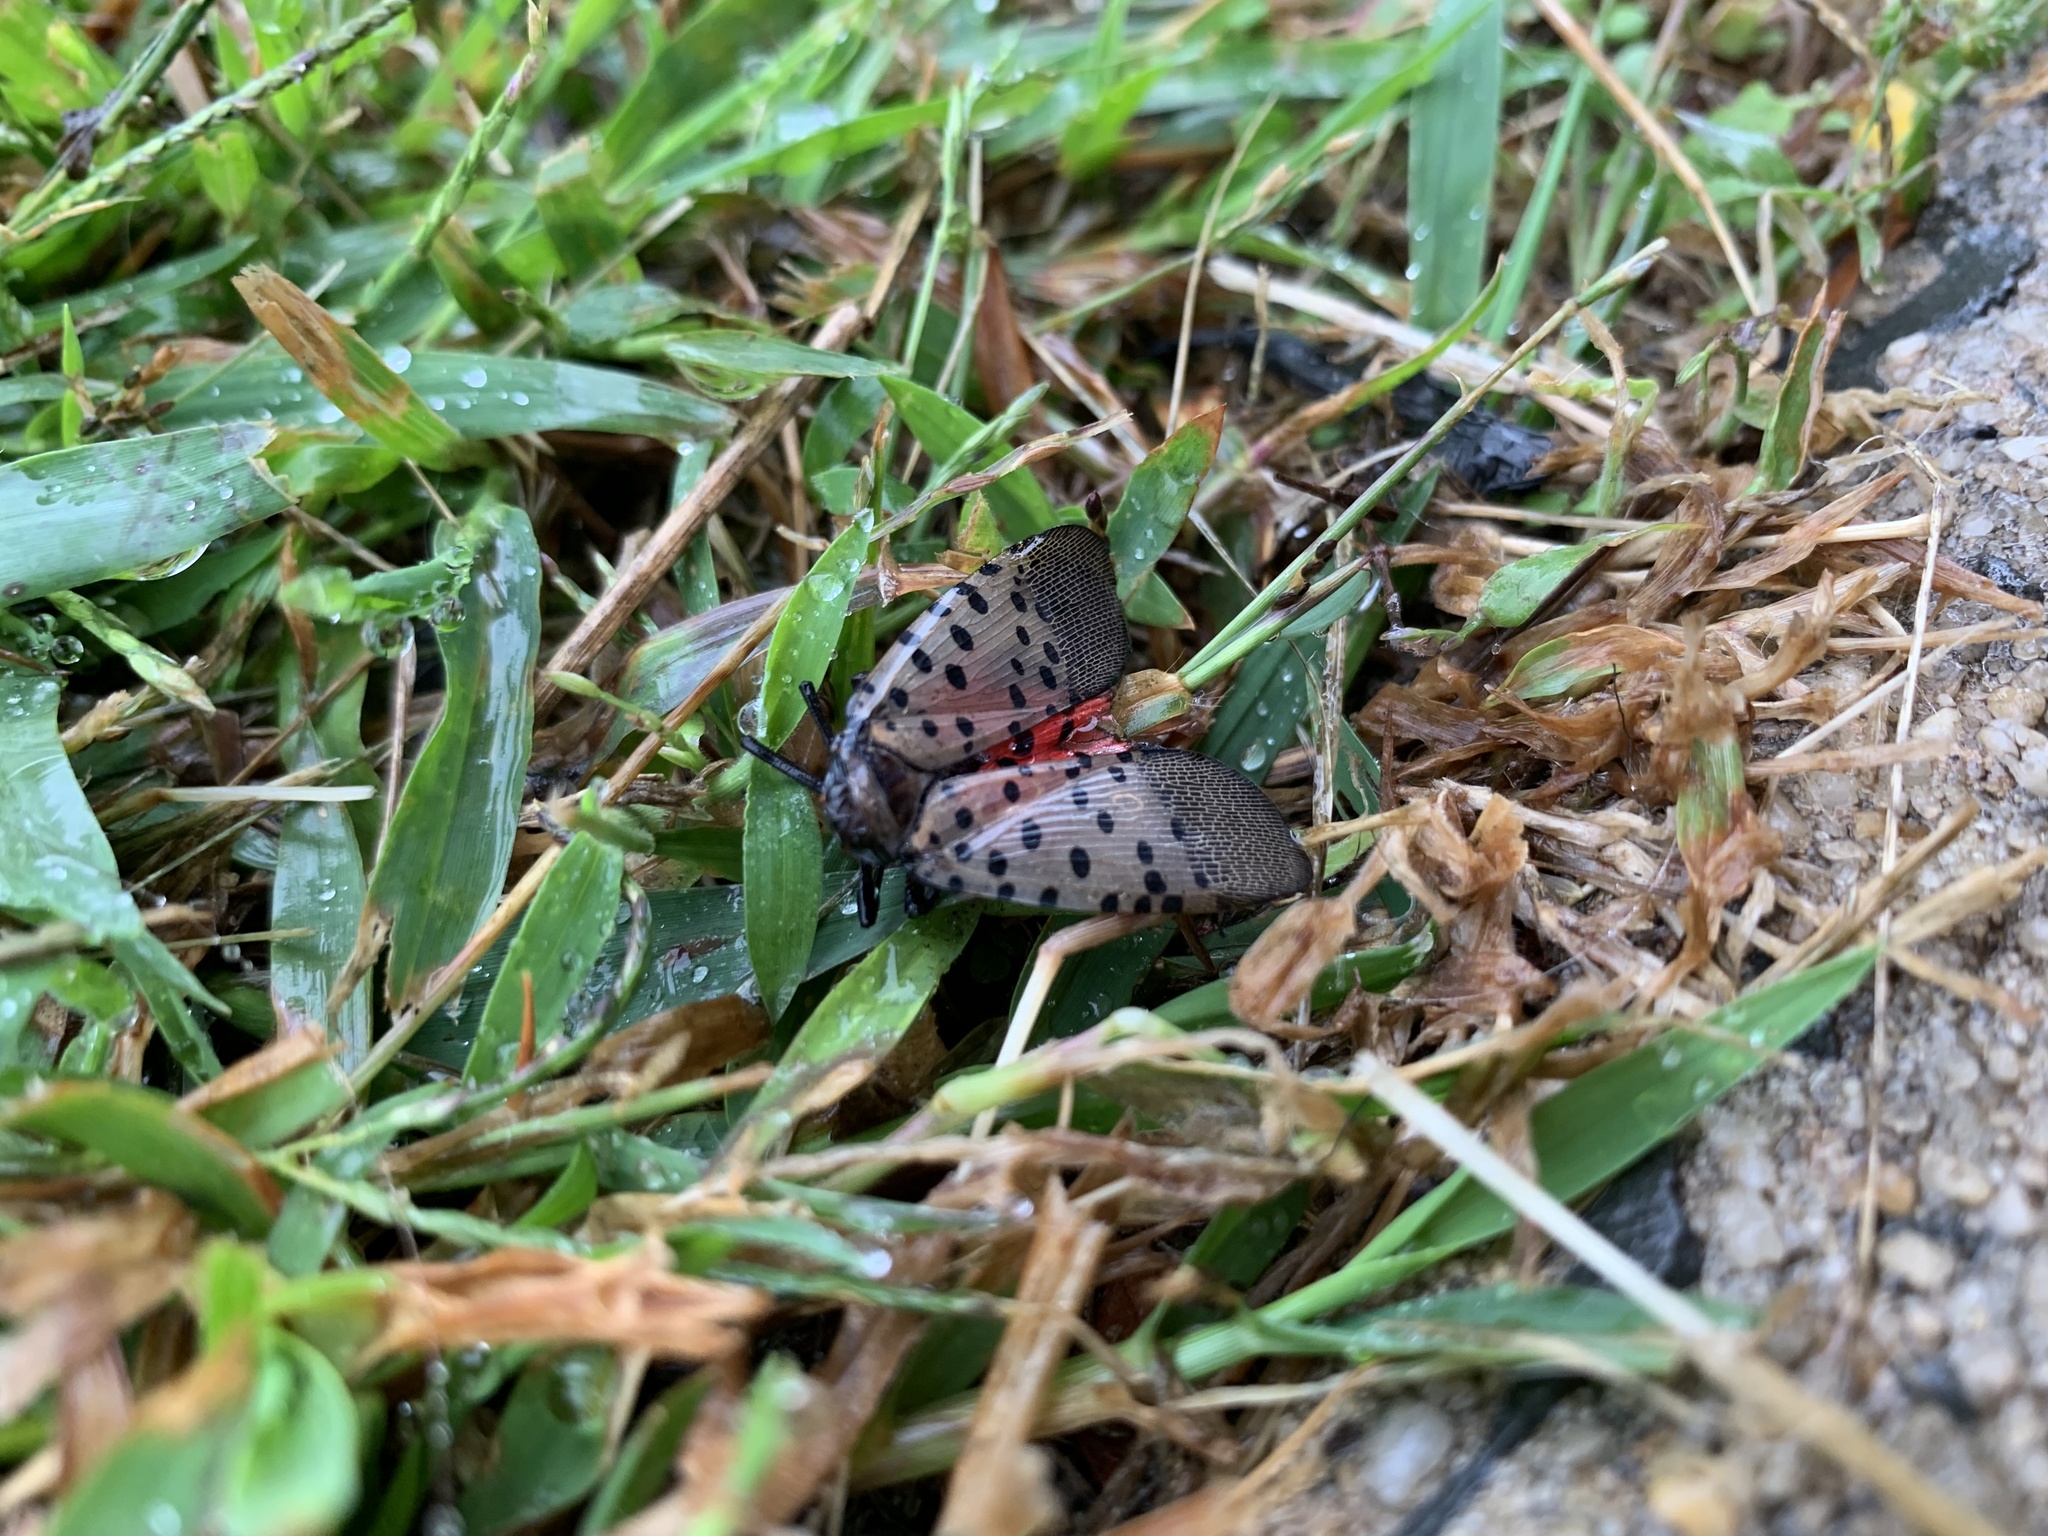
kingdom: Animalia
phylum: Arthropoda
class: Insecta
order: Hemiptera
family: Fulgoridae
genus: Lycorma
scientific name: Lycorma delicatula
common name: Spotted lanternfly
